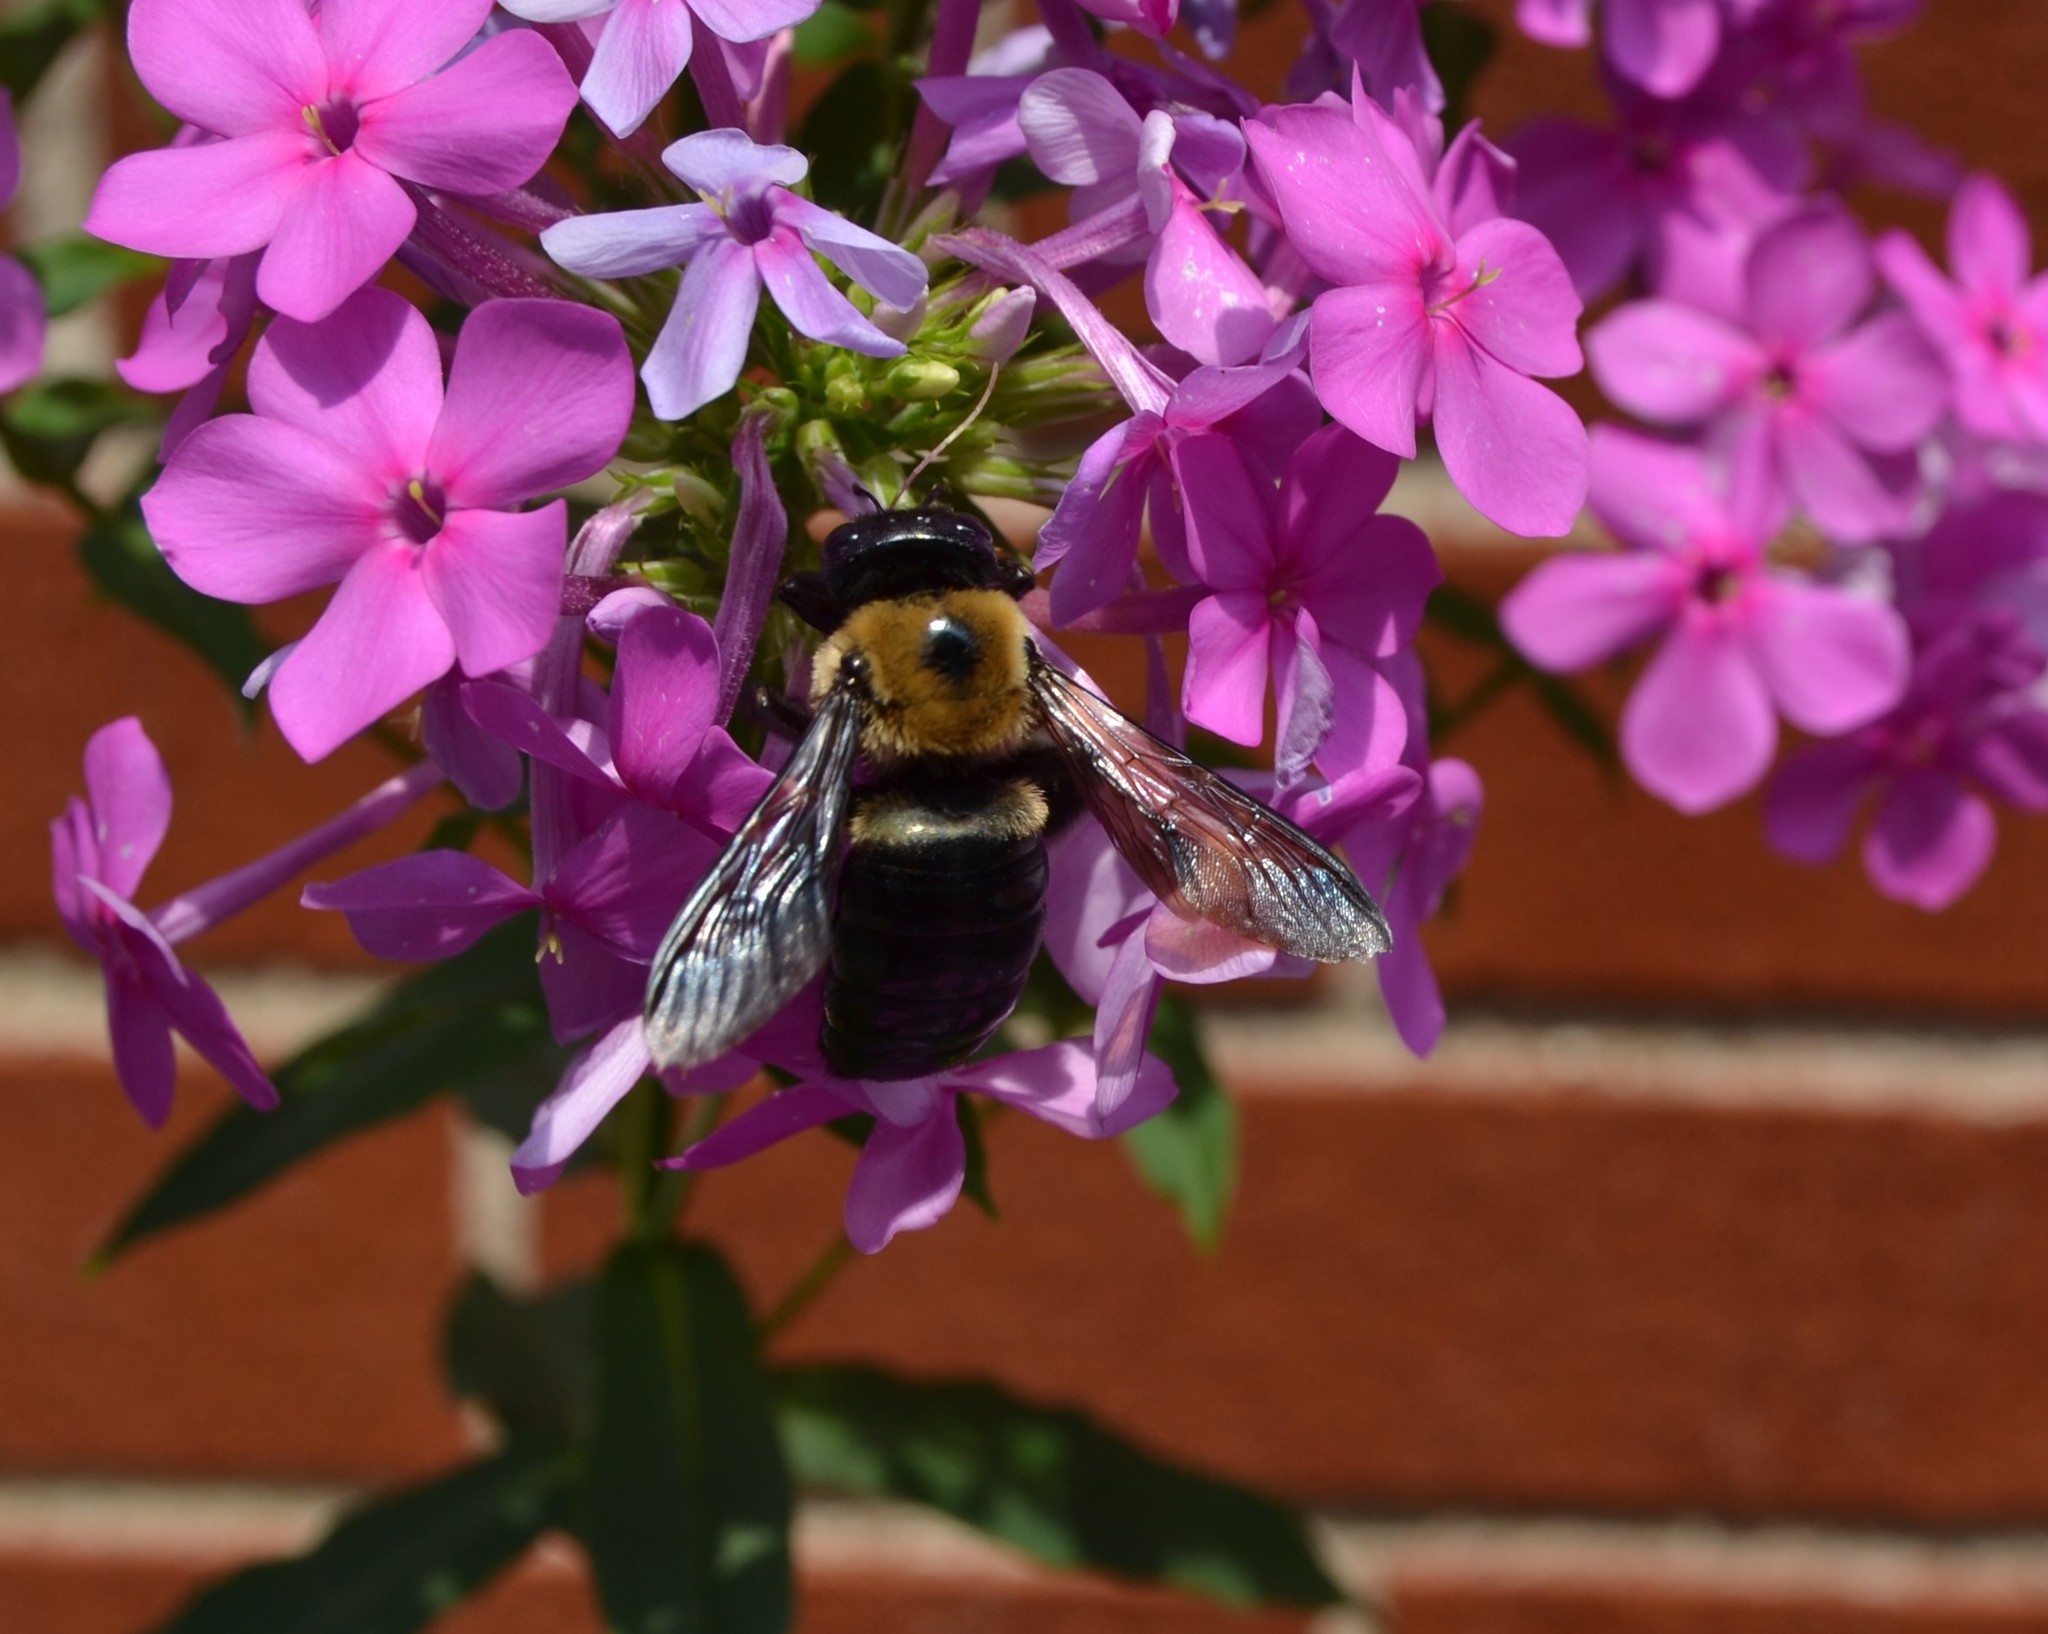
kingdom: Animalia
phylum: Arthropoda
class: Insecta
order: Hymenoptera
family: Apidae
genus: Xylocopa
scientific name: Xylocopa virginica
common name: Carpenter bee
